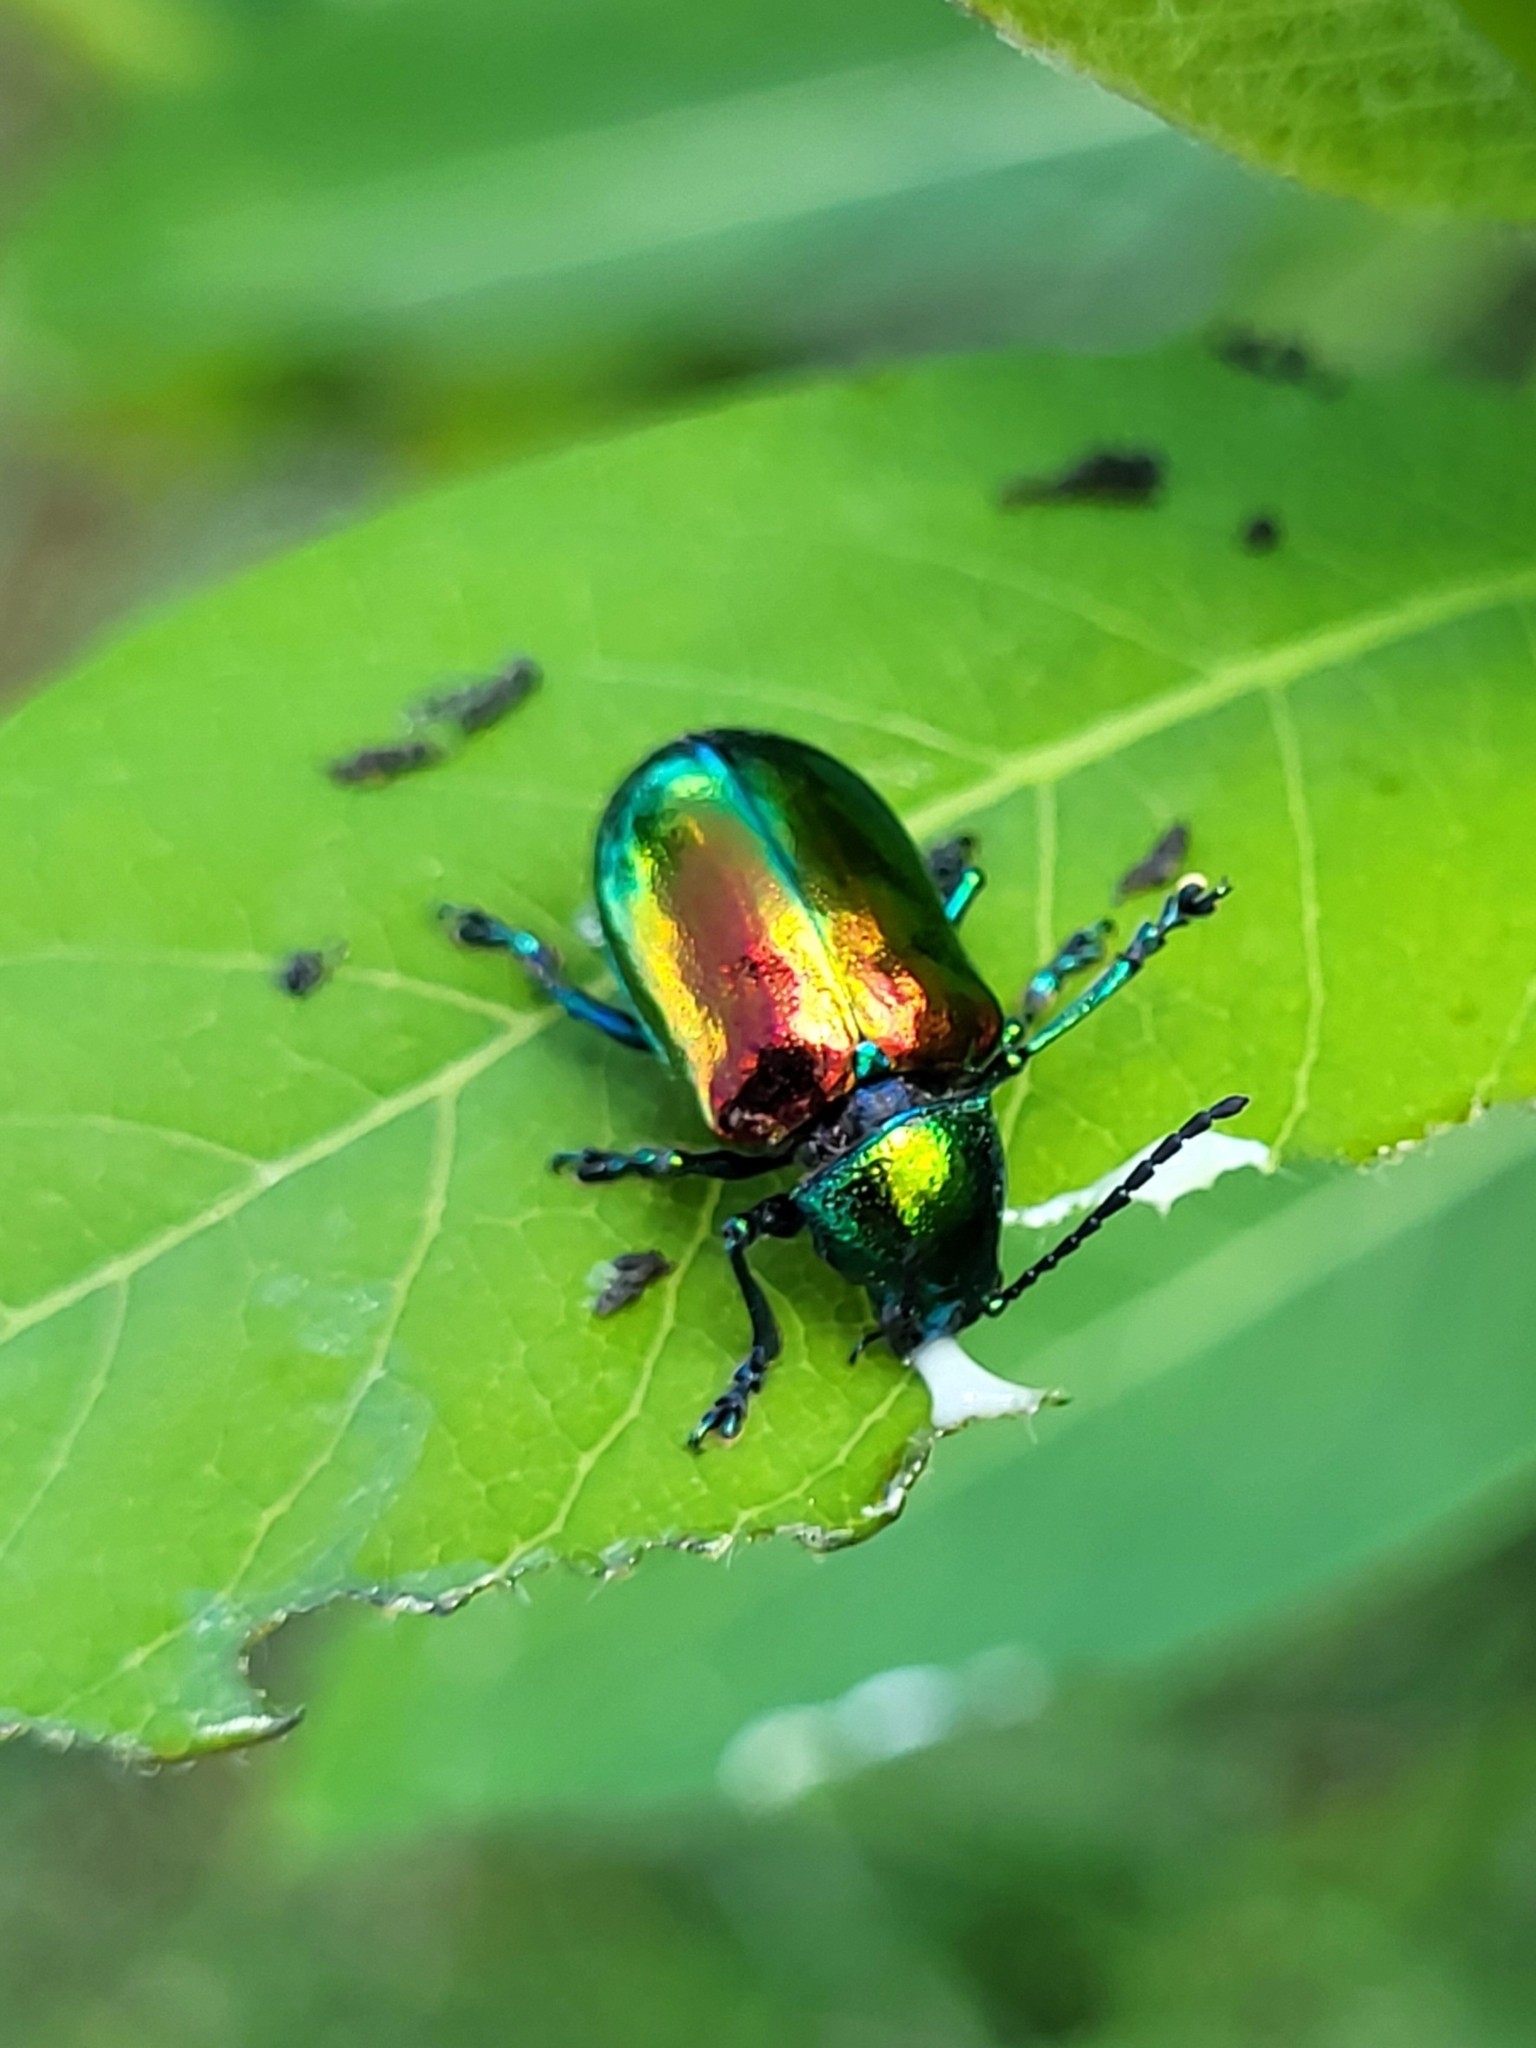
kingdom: Animalia
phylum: Arthropoda
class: Insecta
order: Coleoptera
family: Chrysomelidae
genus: Chrysochus
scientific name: Chrysochus auratus
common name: Dogbane leaf beetle
